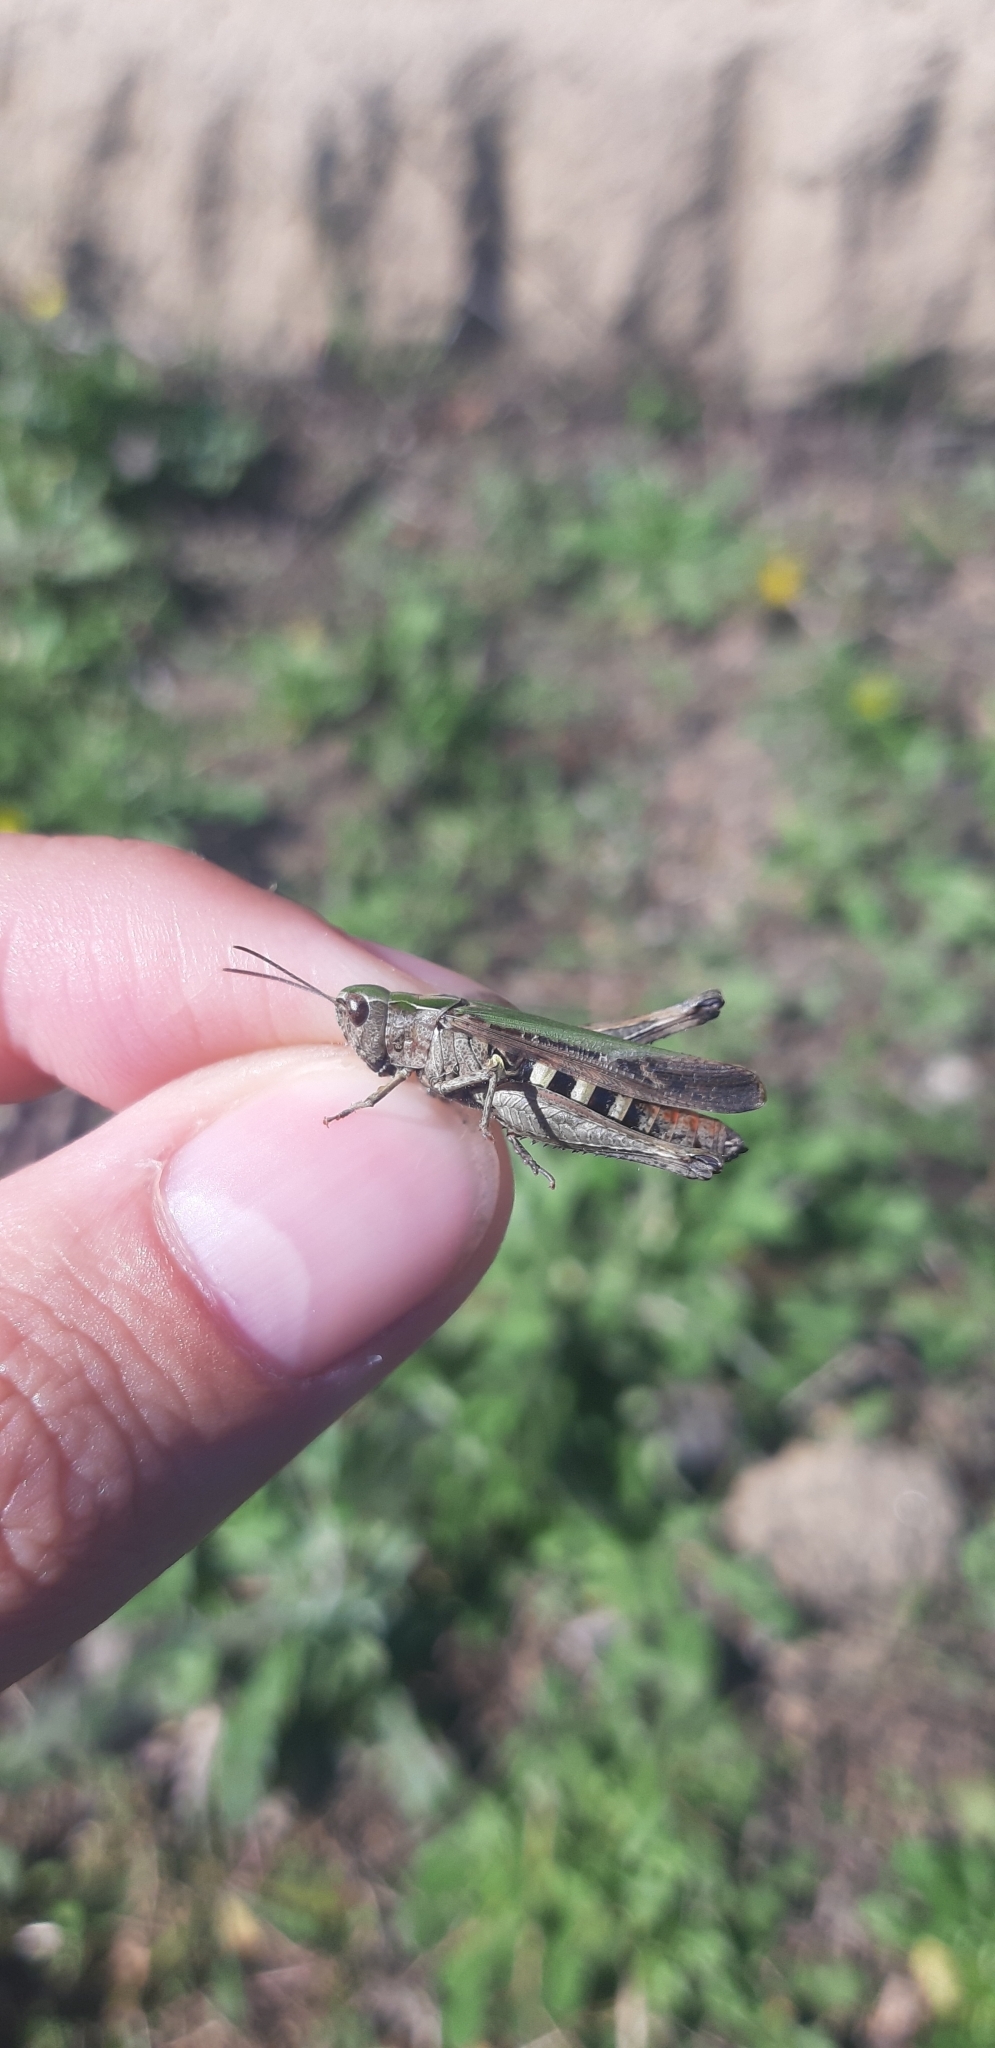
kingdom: Animalia
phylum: Arthropoda
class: Insecta
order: Orthoptera
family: Acrididae
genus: Omocestus
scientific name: Omocestus rufipes
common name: Woodland grasshopper
